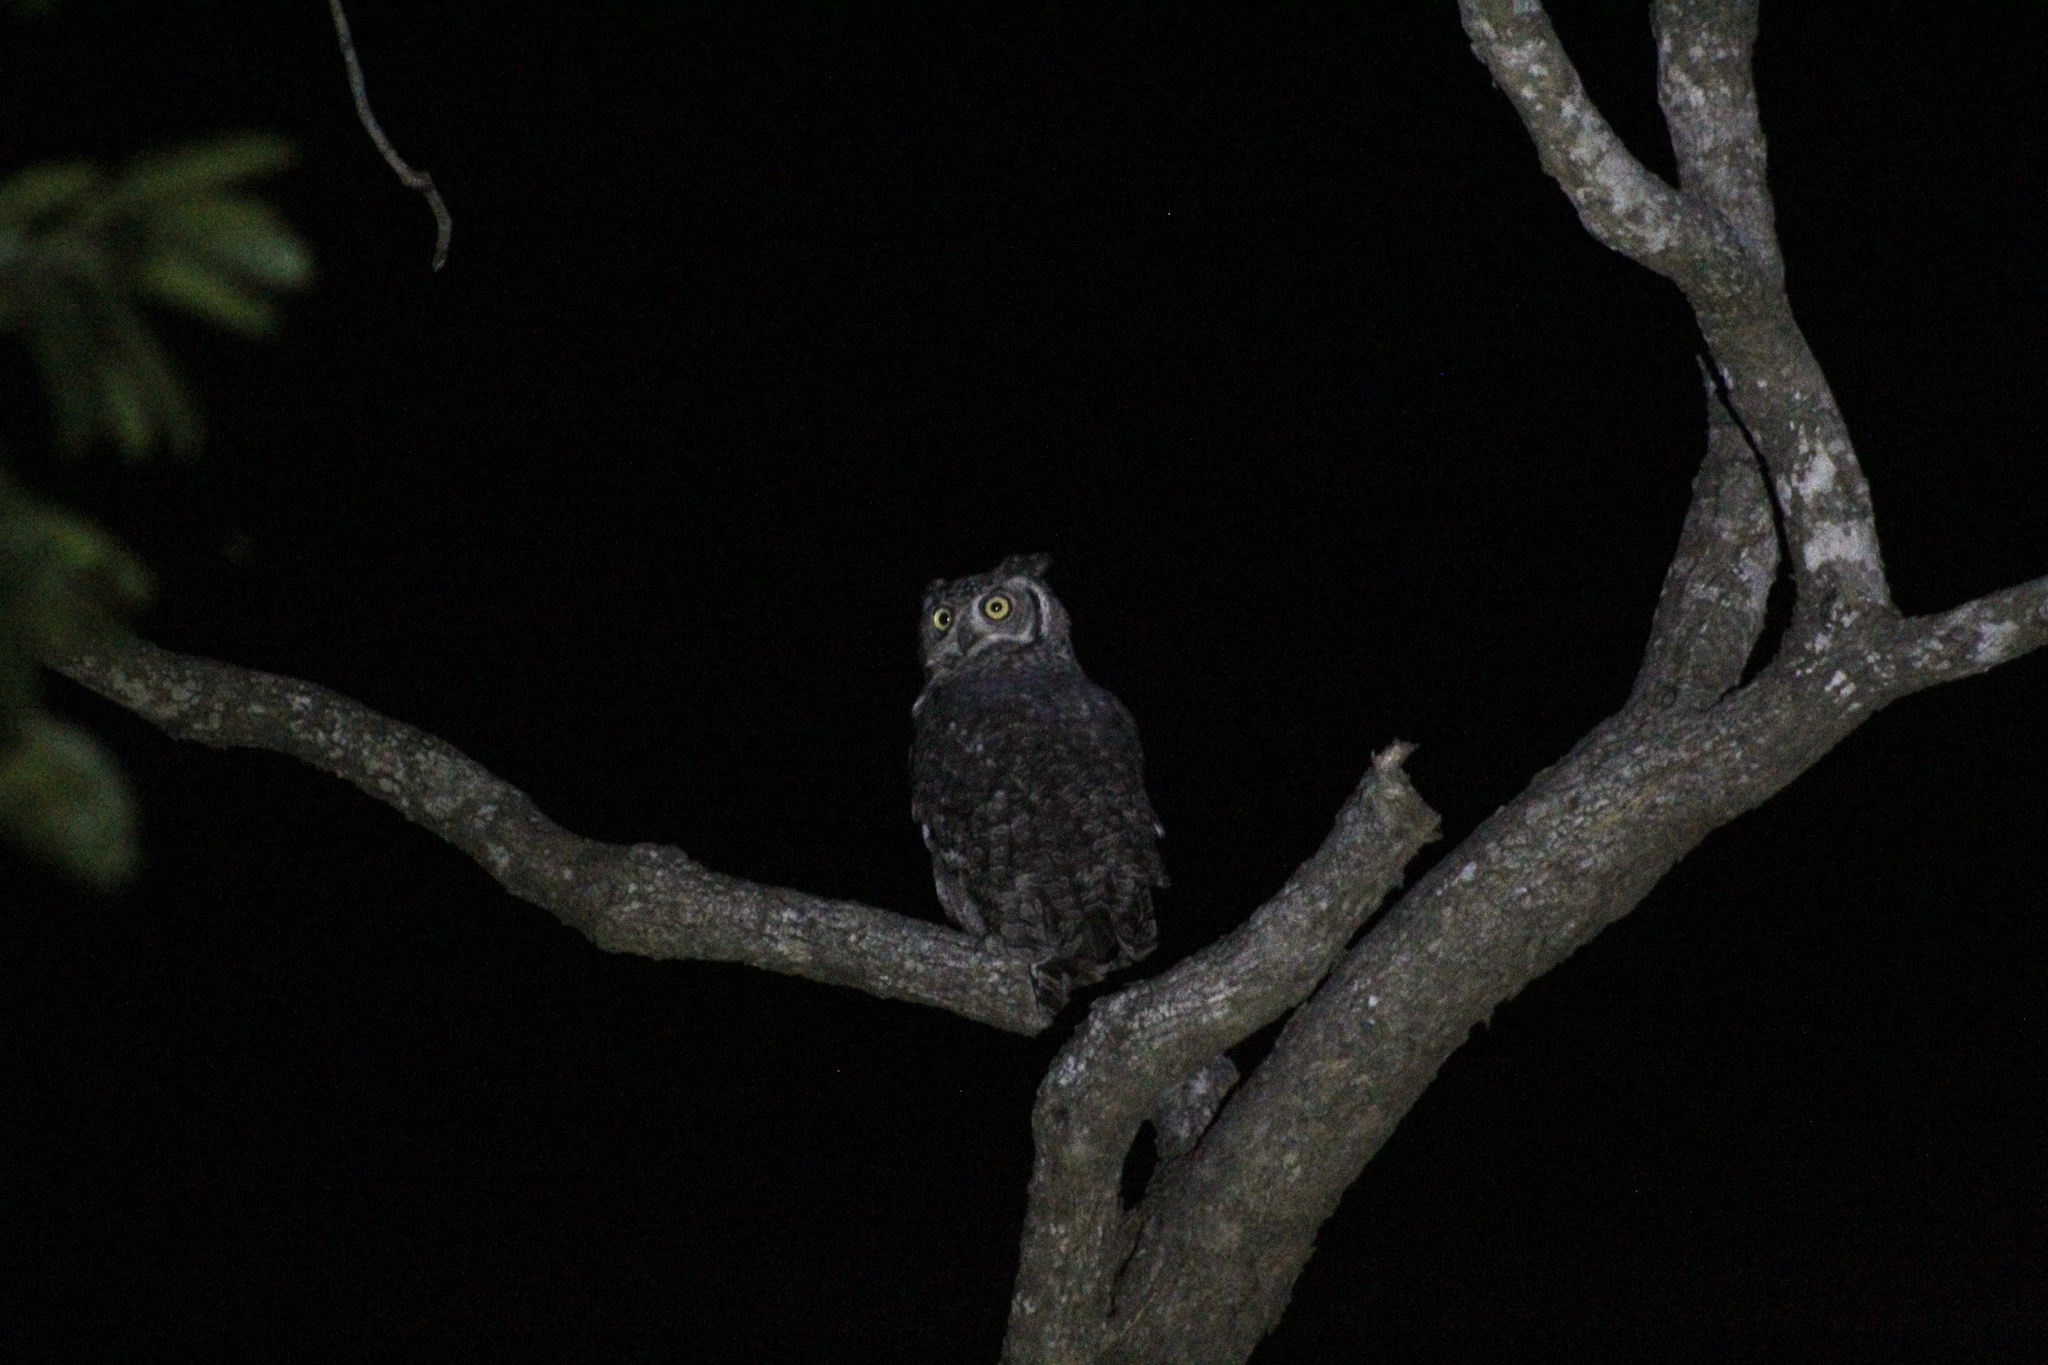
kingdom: Animalia
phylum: Chordata
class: Aves
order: Strigiformes
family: Strigidae
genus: Bubo
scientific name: Bubo africanus
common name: Spotted eagle-owl
